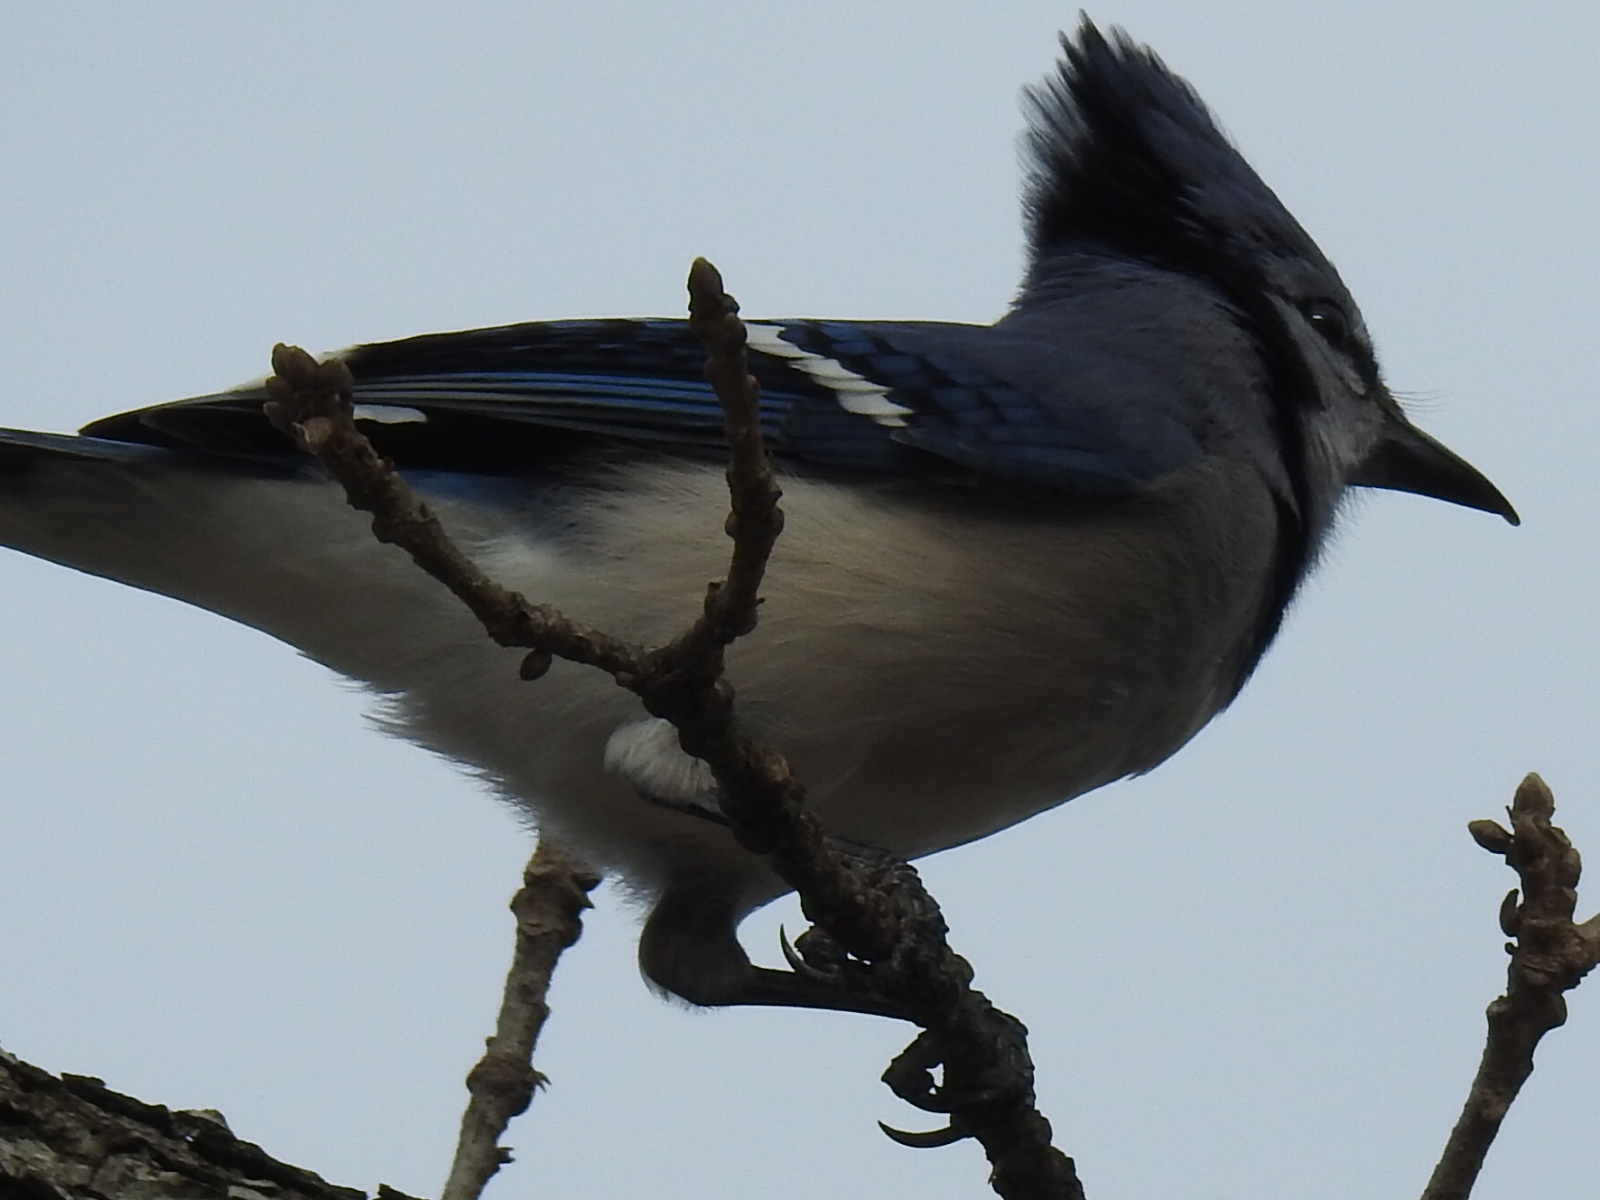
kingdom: Animalia
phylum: Chordata
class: Aves
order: Passeriformes
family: Corvidae
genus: Cyanocitta
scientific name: Cyanocitta cristata
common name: Blue jay
